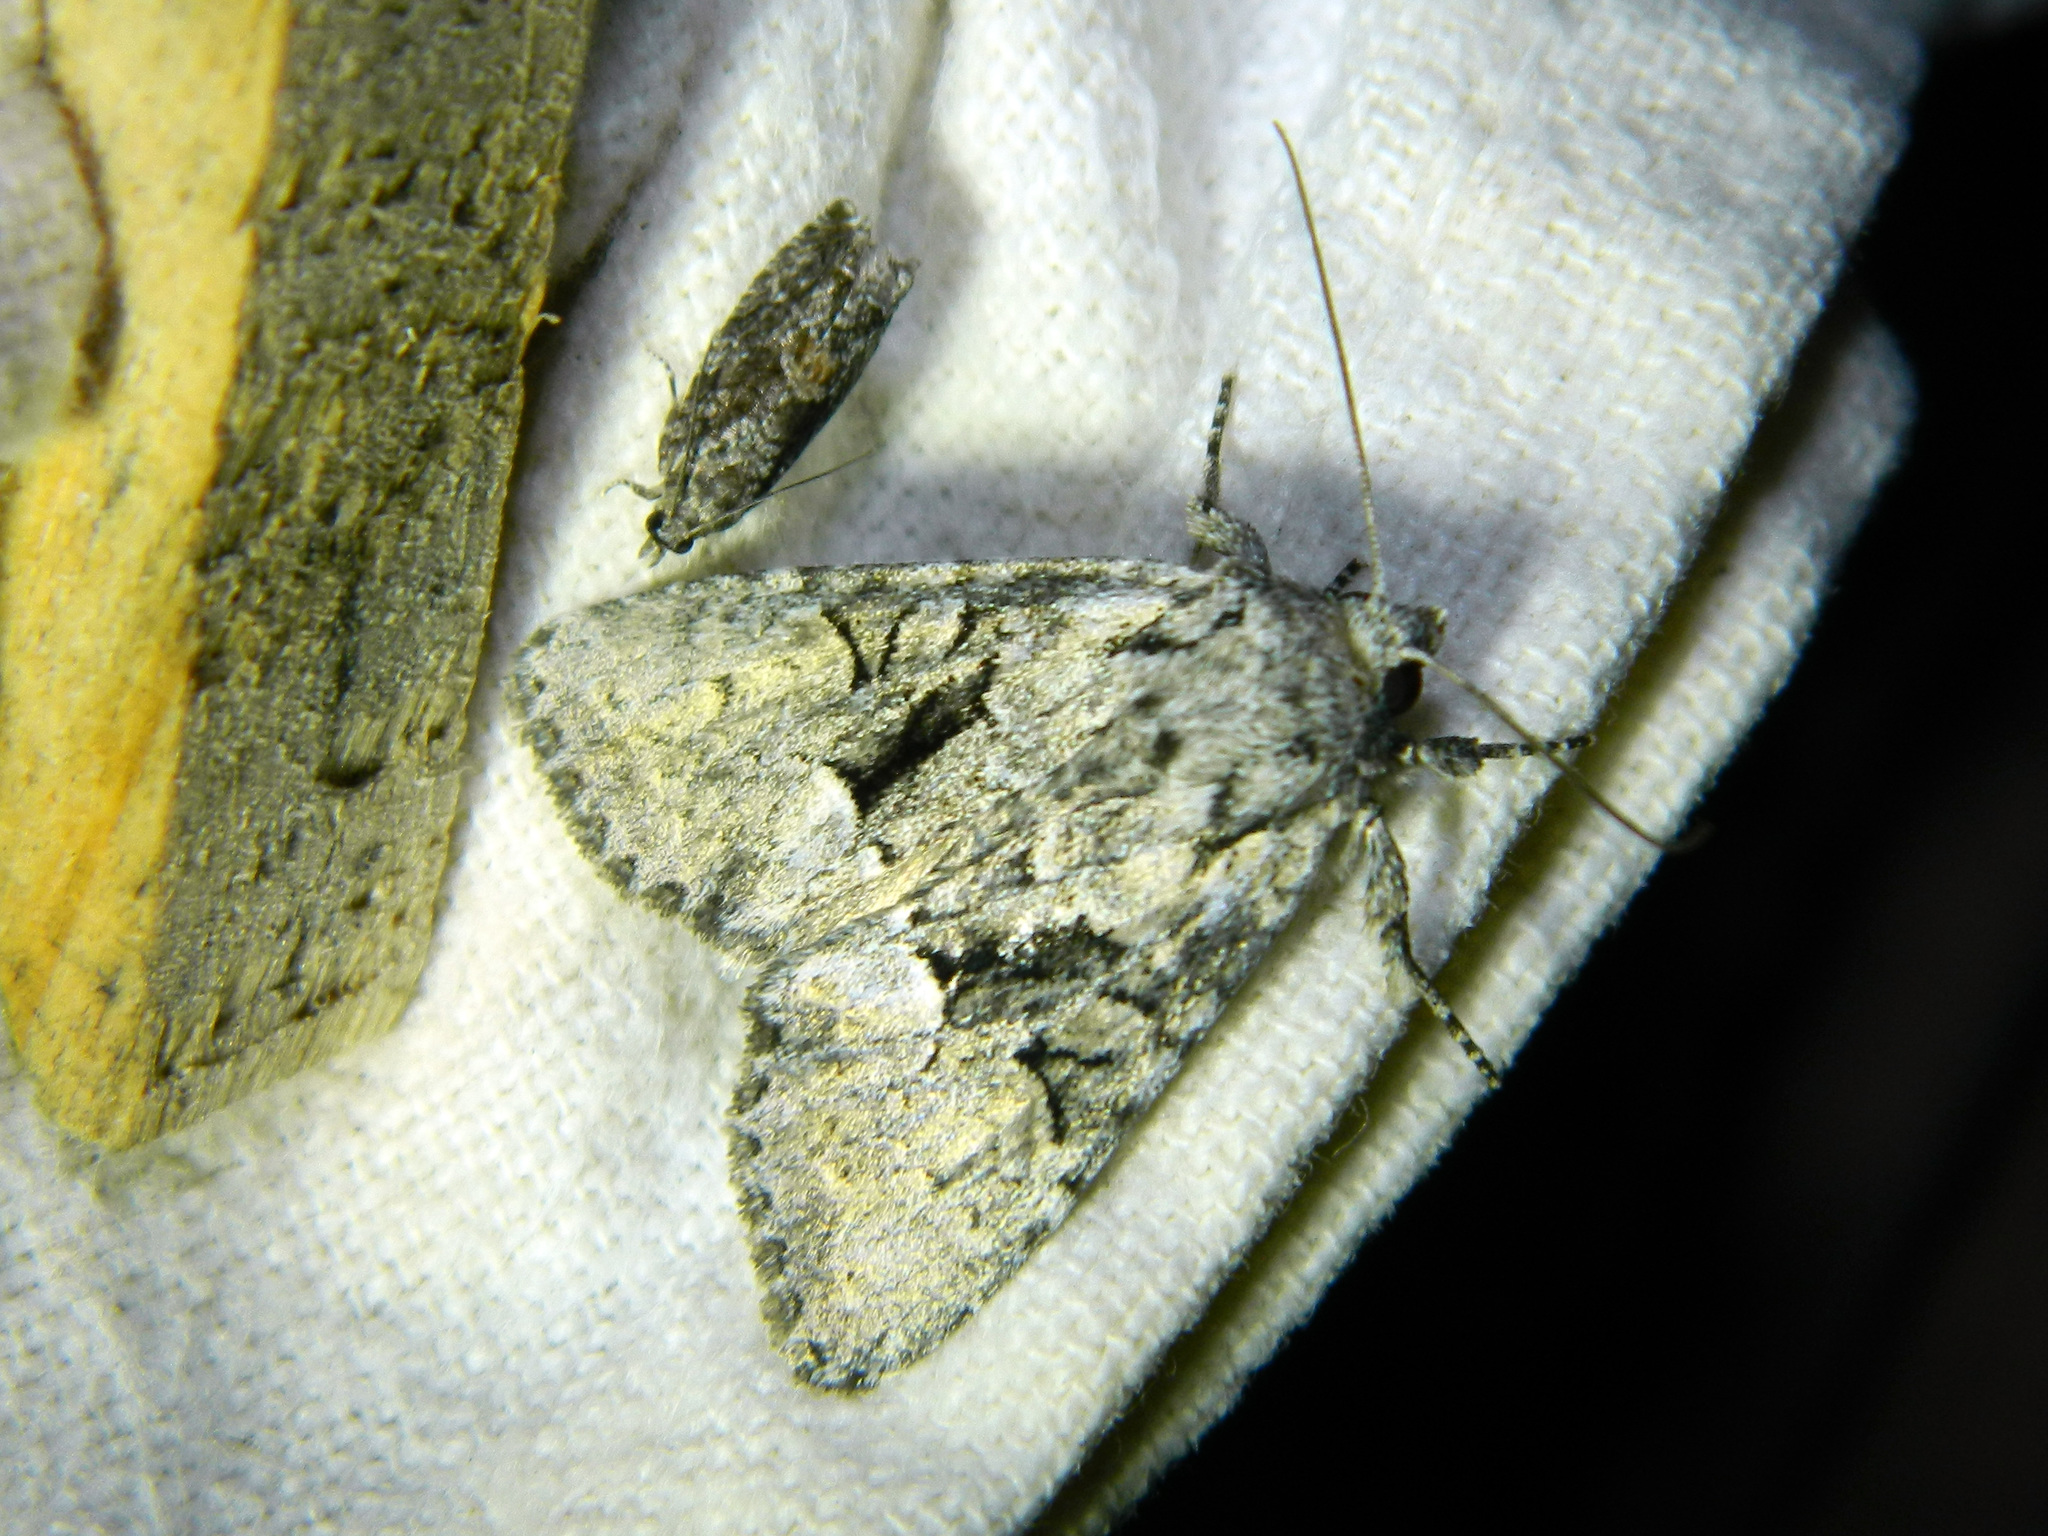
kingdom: Animalia
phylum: Arthropoda
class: Insecta
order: Lepidoptera
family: Noctuidae
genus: Eremobina
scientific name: Eremobina leucoscelis
